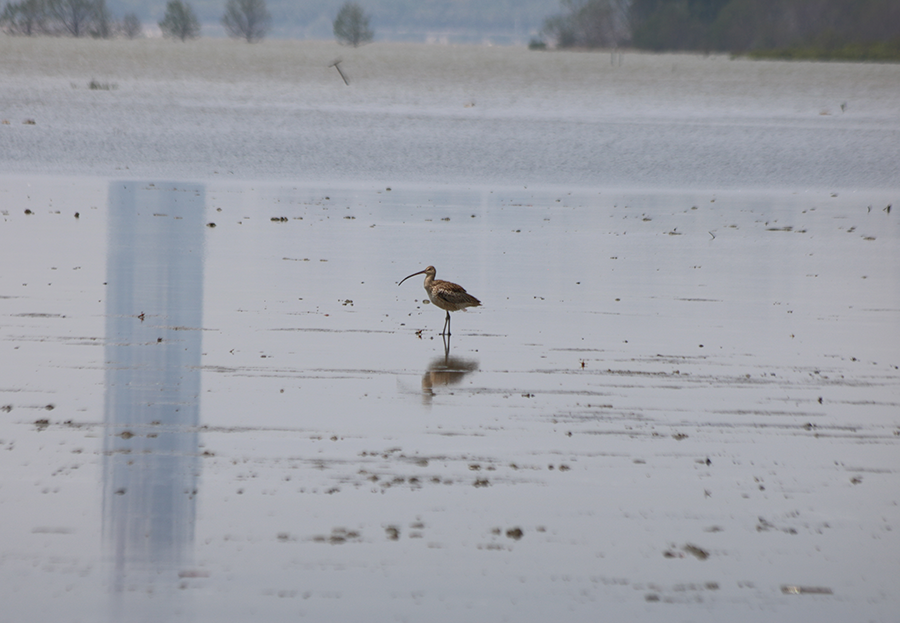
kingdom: Animalia
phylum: Chordata
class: Aves
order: Charadriiformes
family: Scolopacidae
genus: Numenius
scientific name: Numenius madagascariensis
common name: Far eastern curlew
